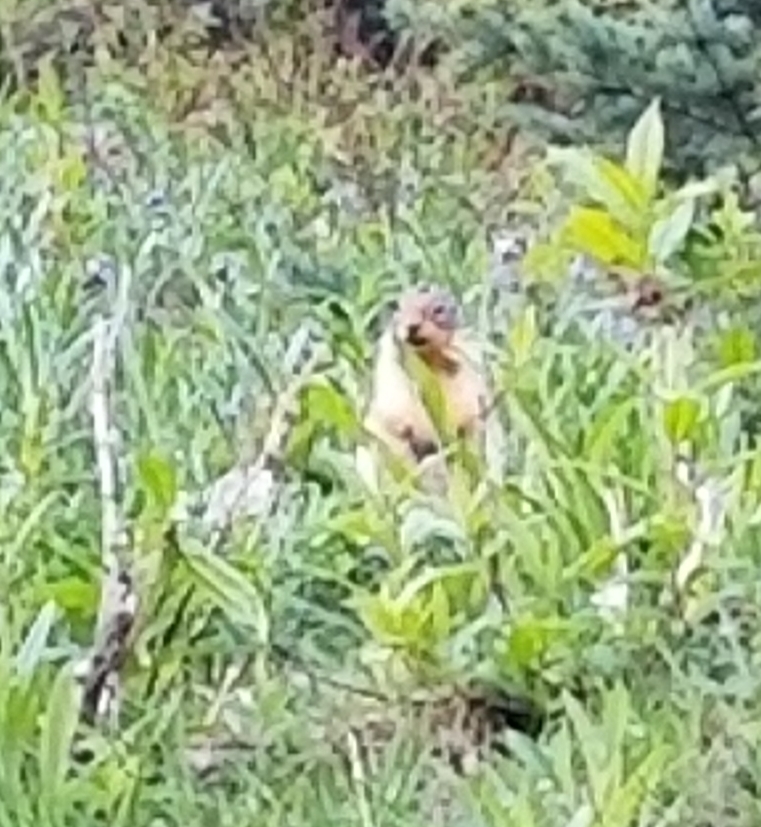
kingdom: Animalia
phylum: Chordata
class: Mammalia
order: Rodentia
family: Sciuridae
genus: Urocitellus
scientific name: Urocitellus columbianus
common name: Columbian ground squirrel
